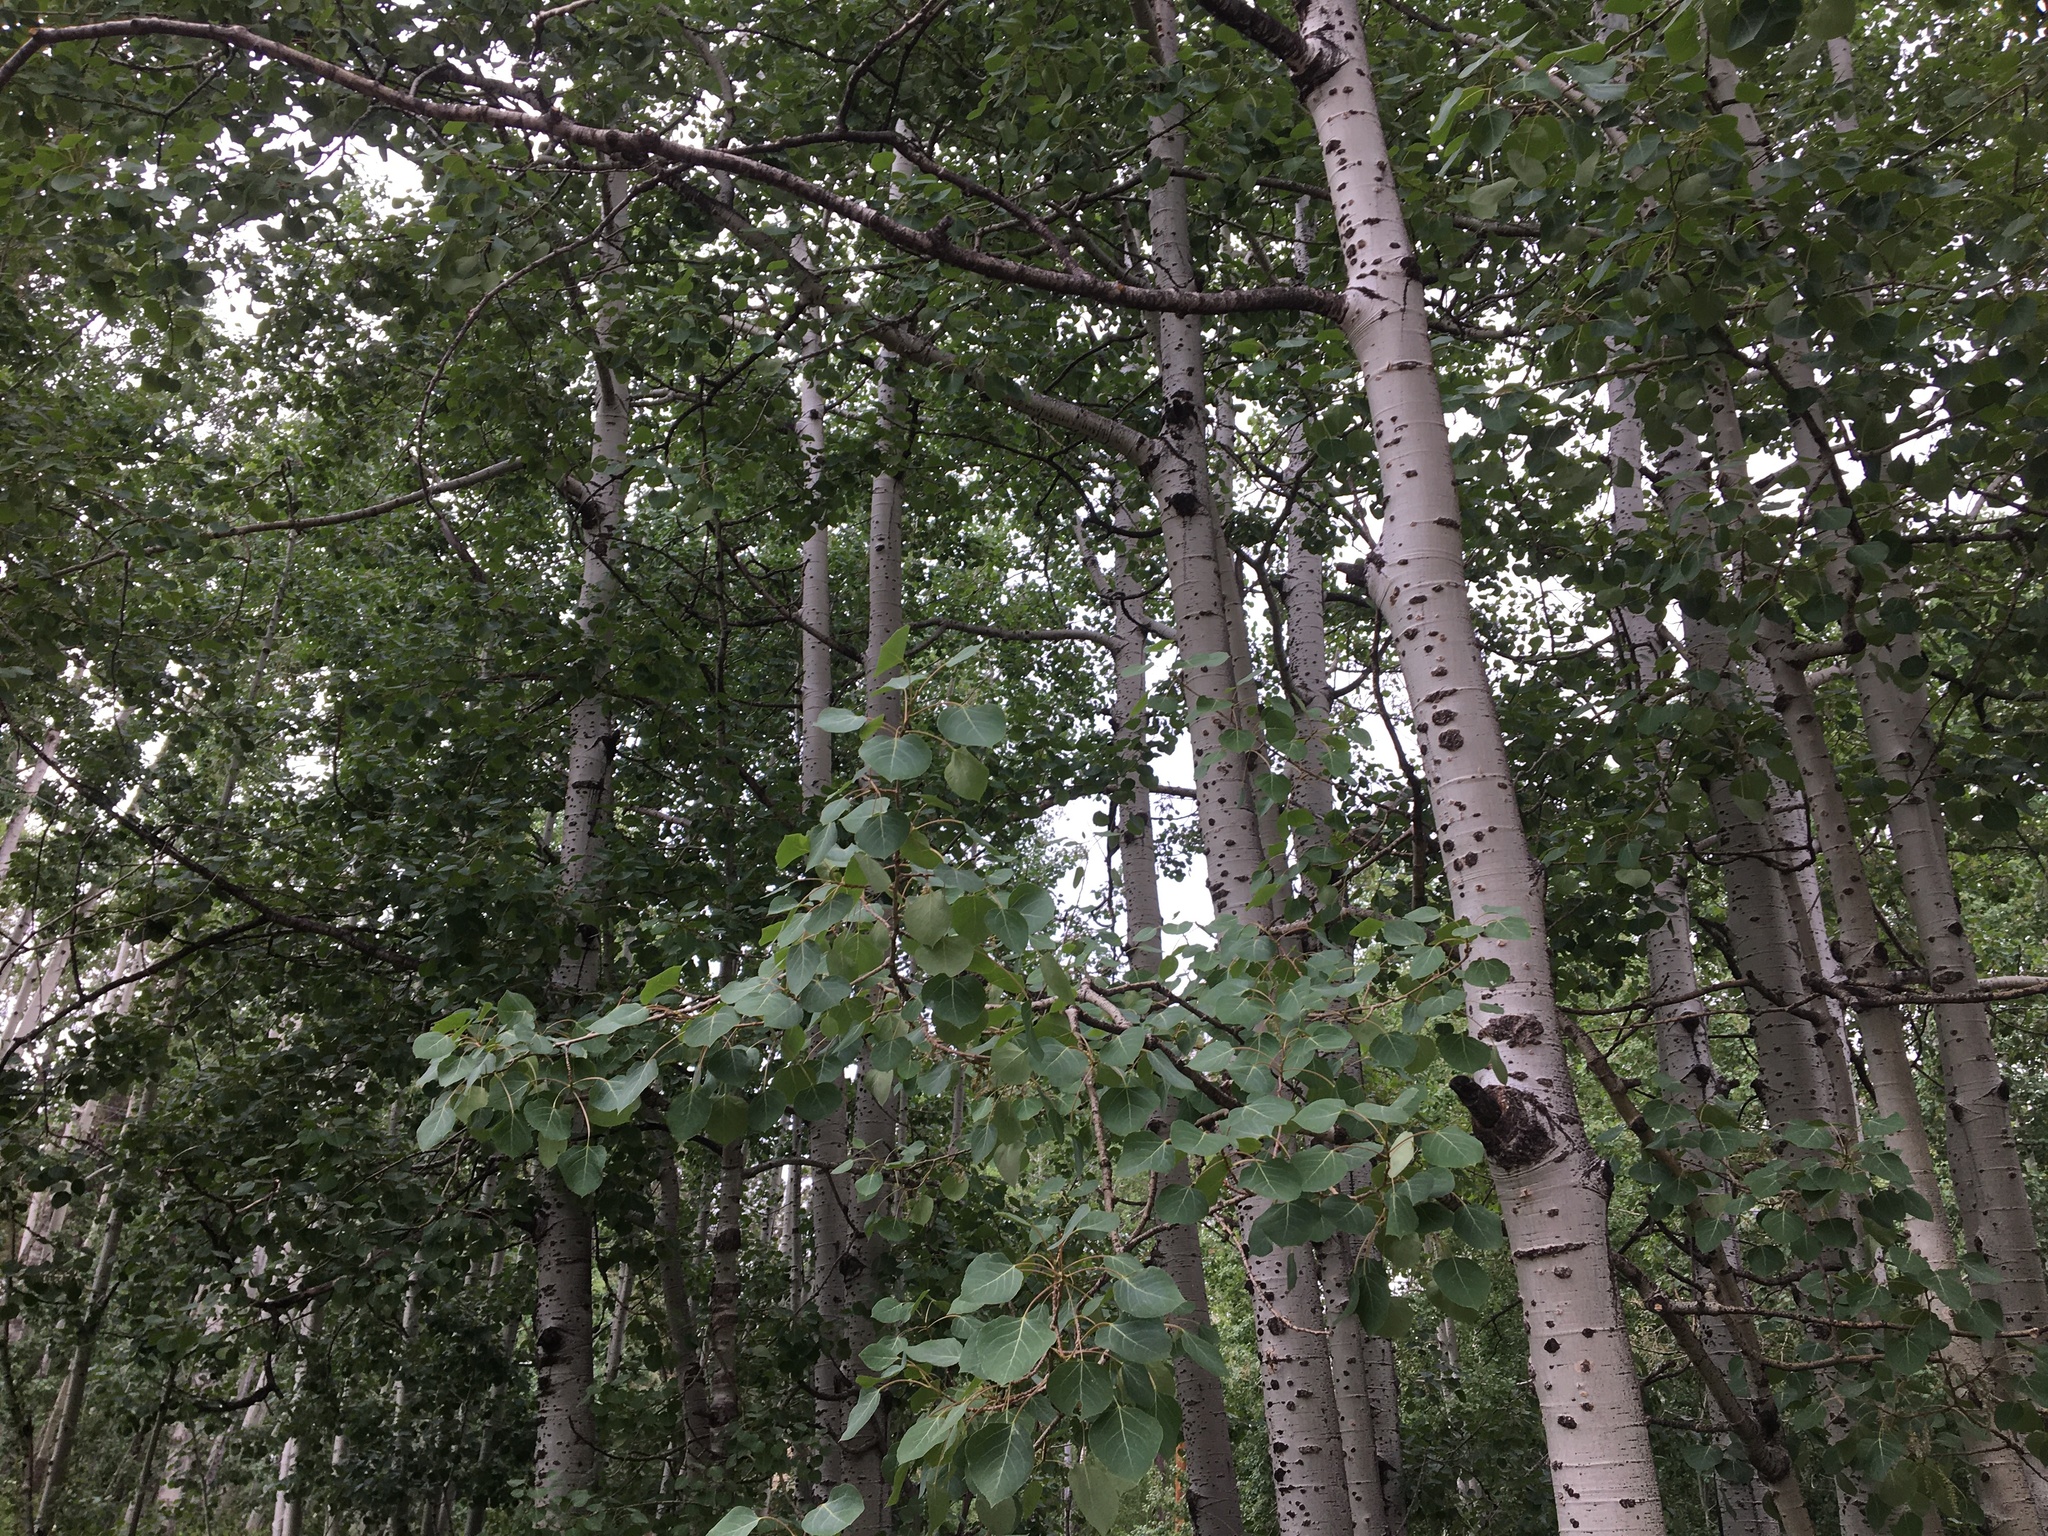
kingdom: Plantae
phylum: Tracheophyta
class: Magnoliopsida
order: Malpighiales
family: Salicaceae
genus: Populus
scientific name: Populus tremuloides
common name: Quaking aspen
